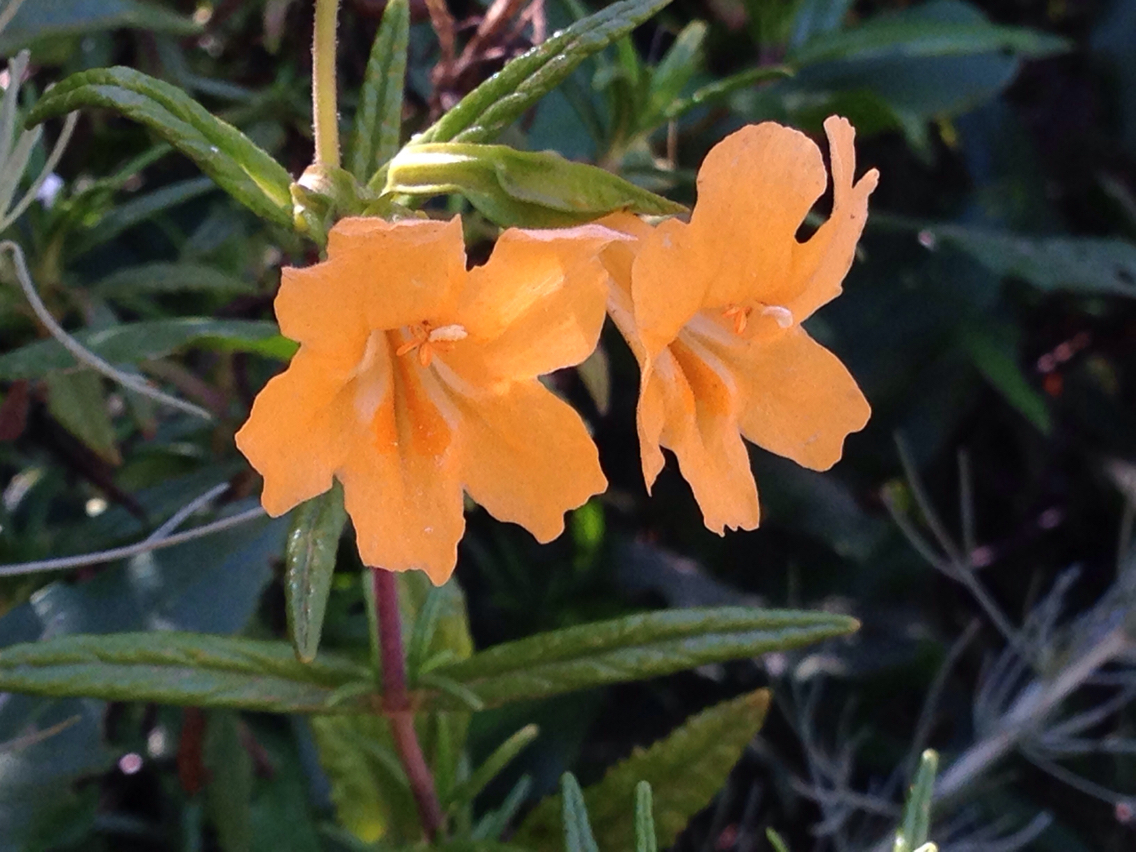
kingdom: Plantae
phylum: Tracheophyta
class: Magnoliopsida
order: Lamiales
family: Phrymaceae
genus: Diplacus
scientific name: Diplacus aurantiacus
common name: Bush monkey-flower
